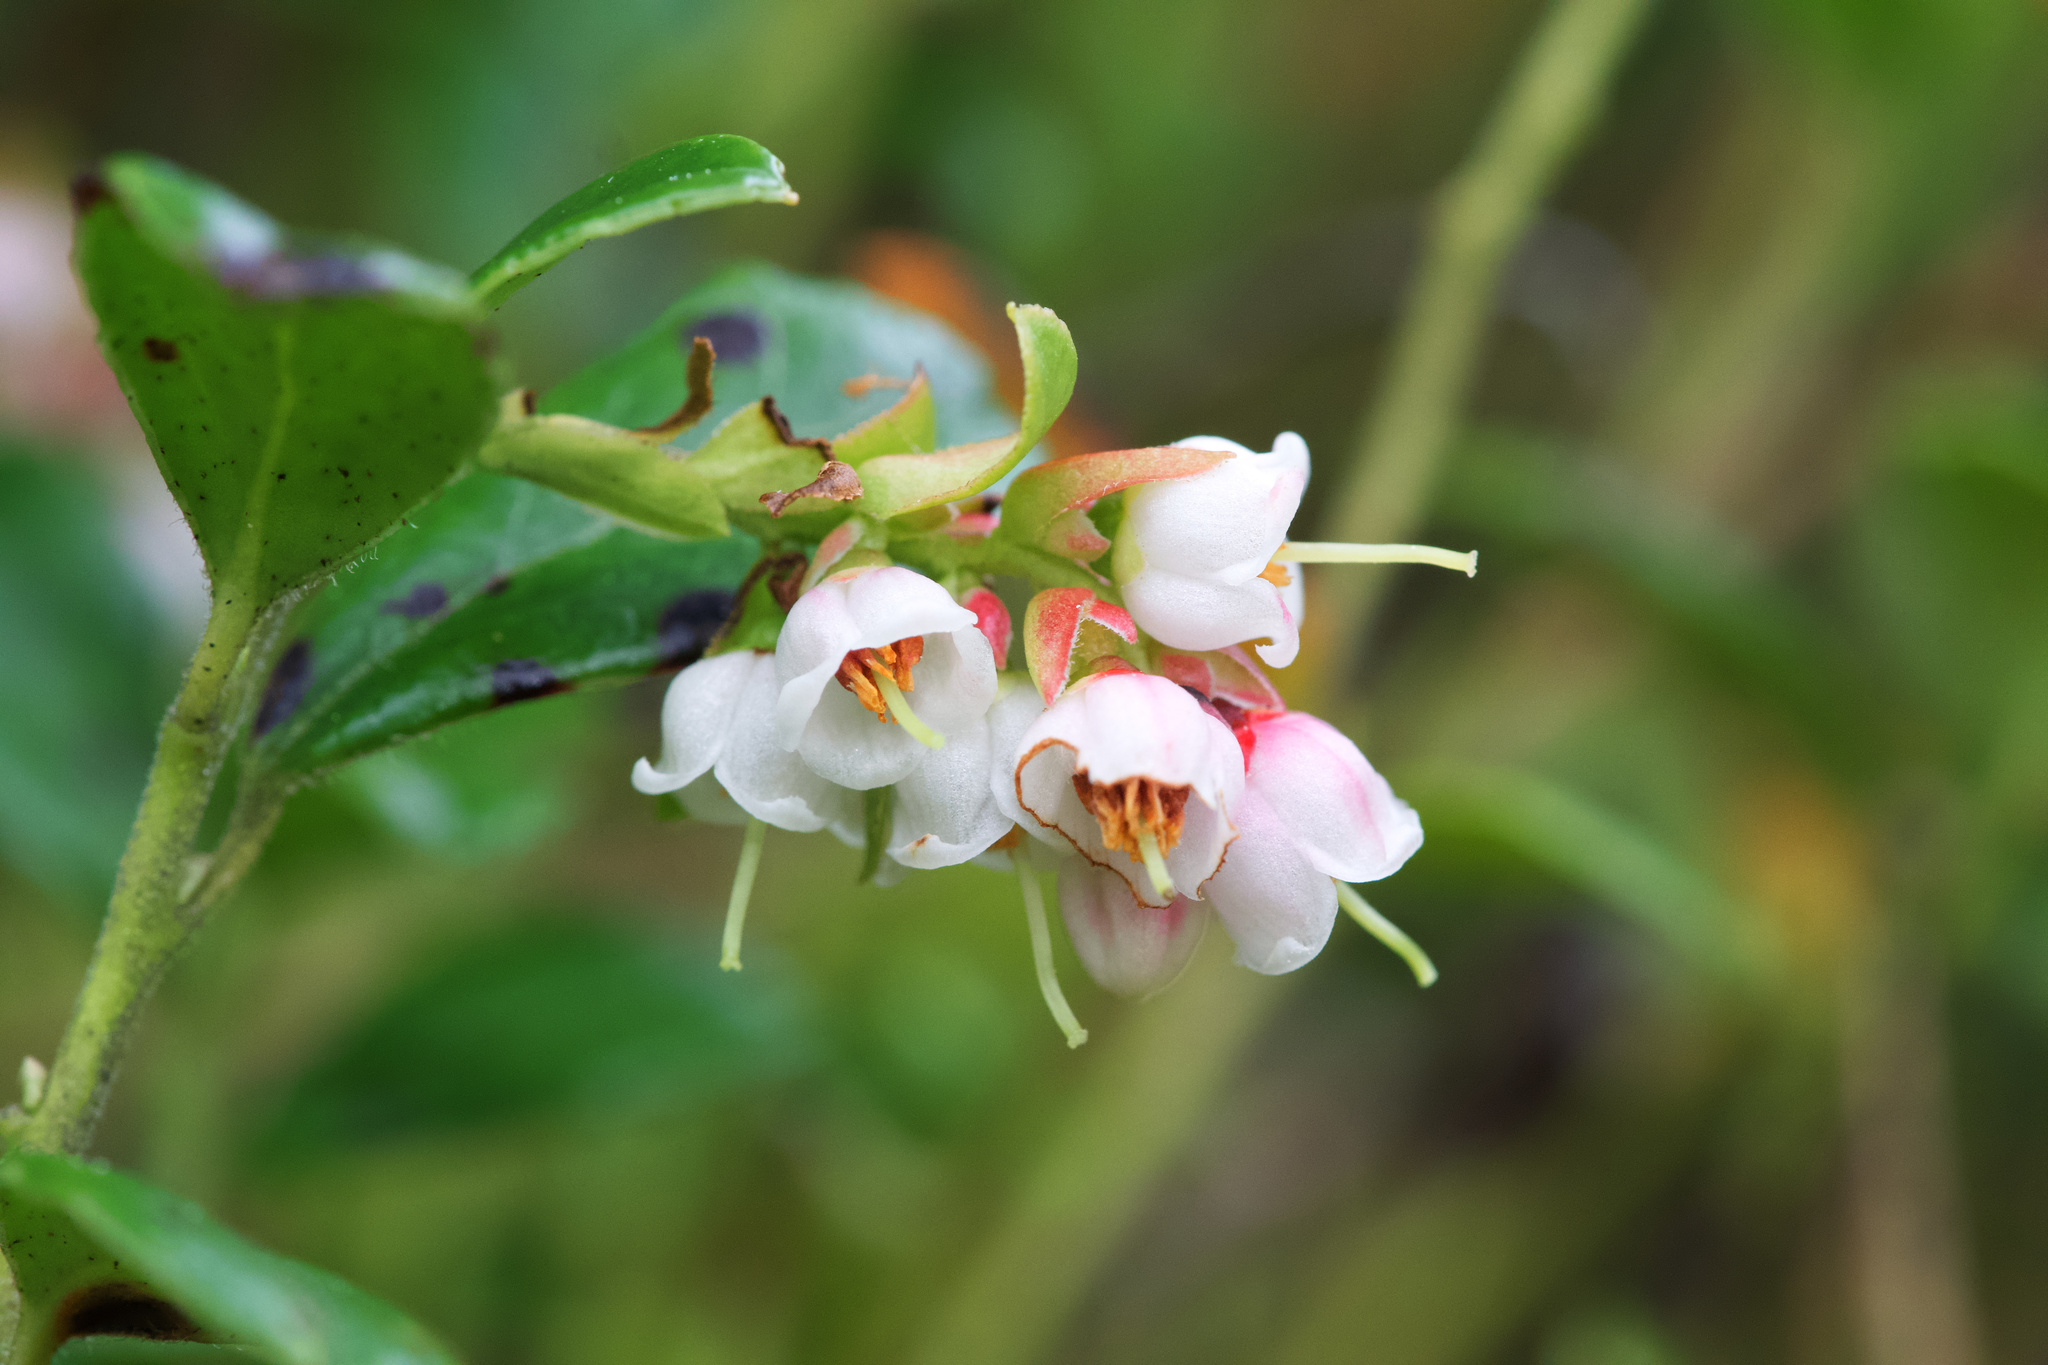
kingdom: Plantae
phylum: Tracheophyta
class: Magnoliopsida
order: Ericales
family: Ericaceae
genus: Vaccinium
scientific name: Vaccinium vitis-idaea
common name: Cowberry
